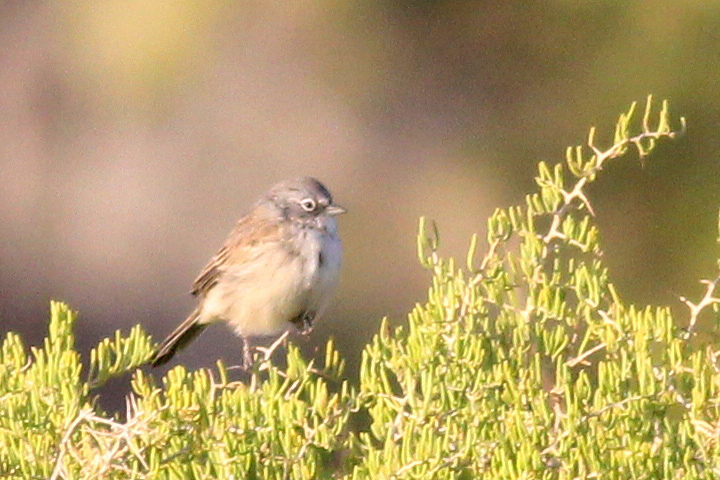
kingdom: Animalia
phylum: Chordata
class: Aves
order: Passeriformes
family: Passerellidae
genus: Artemisiospiza
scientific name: Artemisiospiza nevadensis
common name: Sagebrush sparrow
